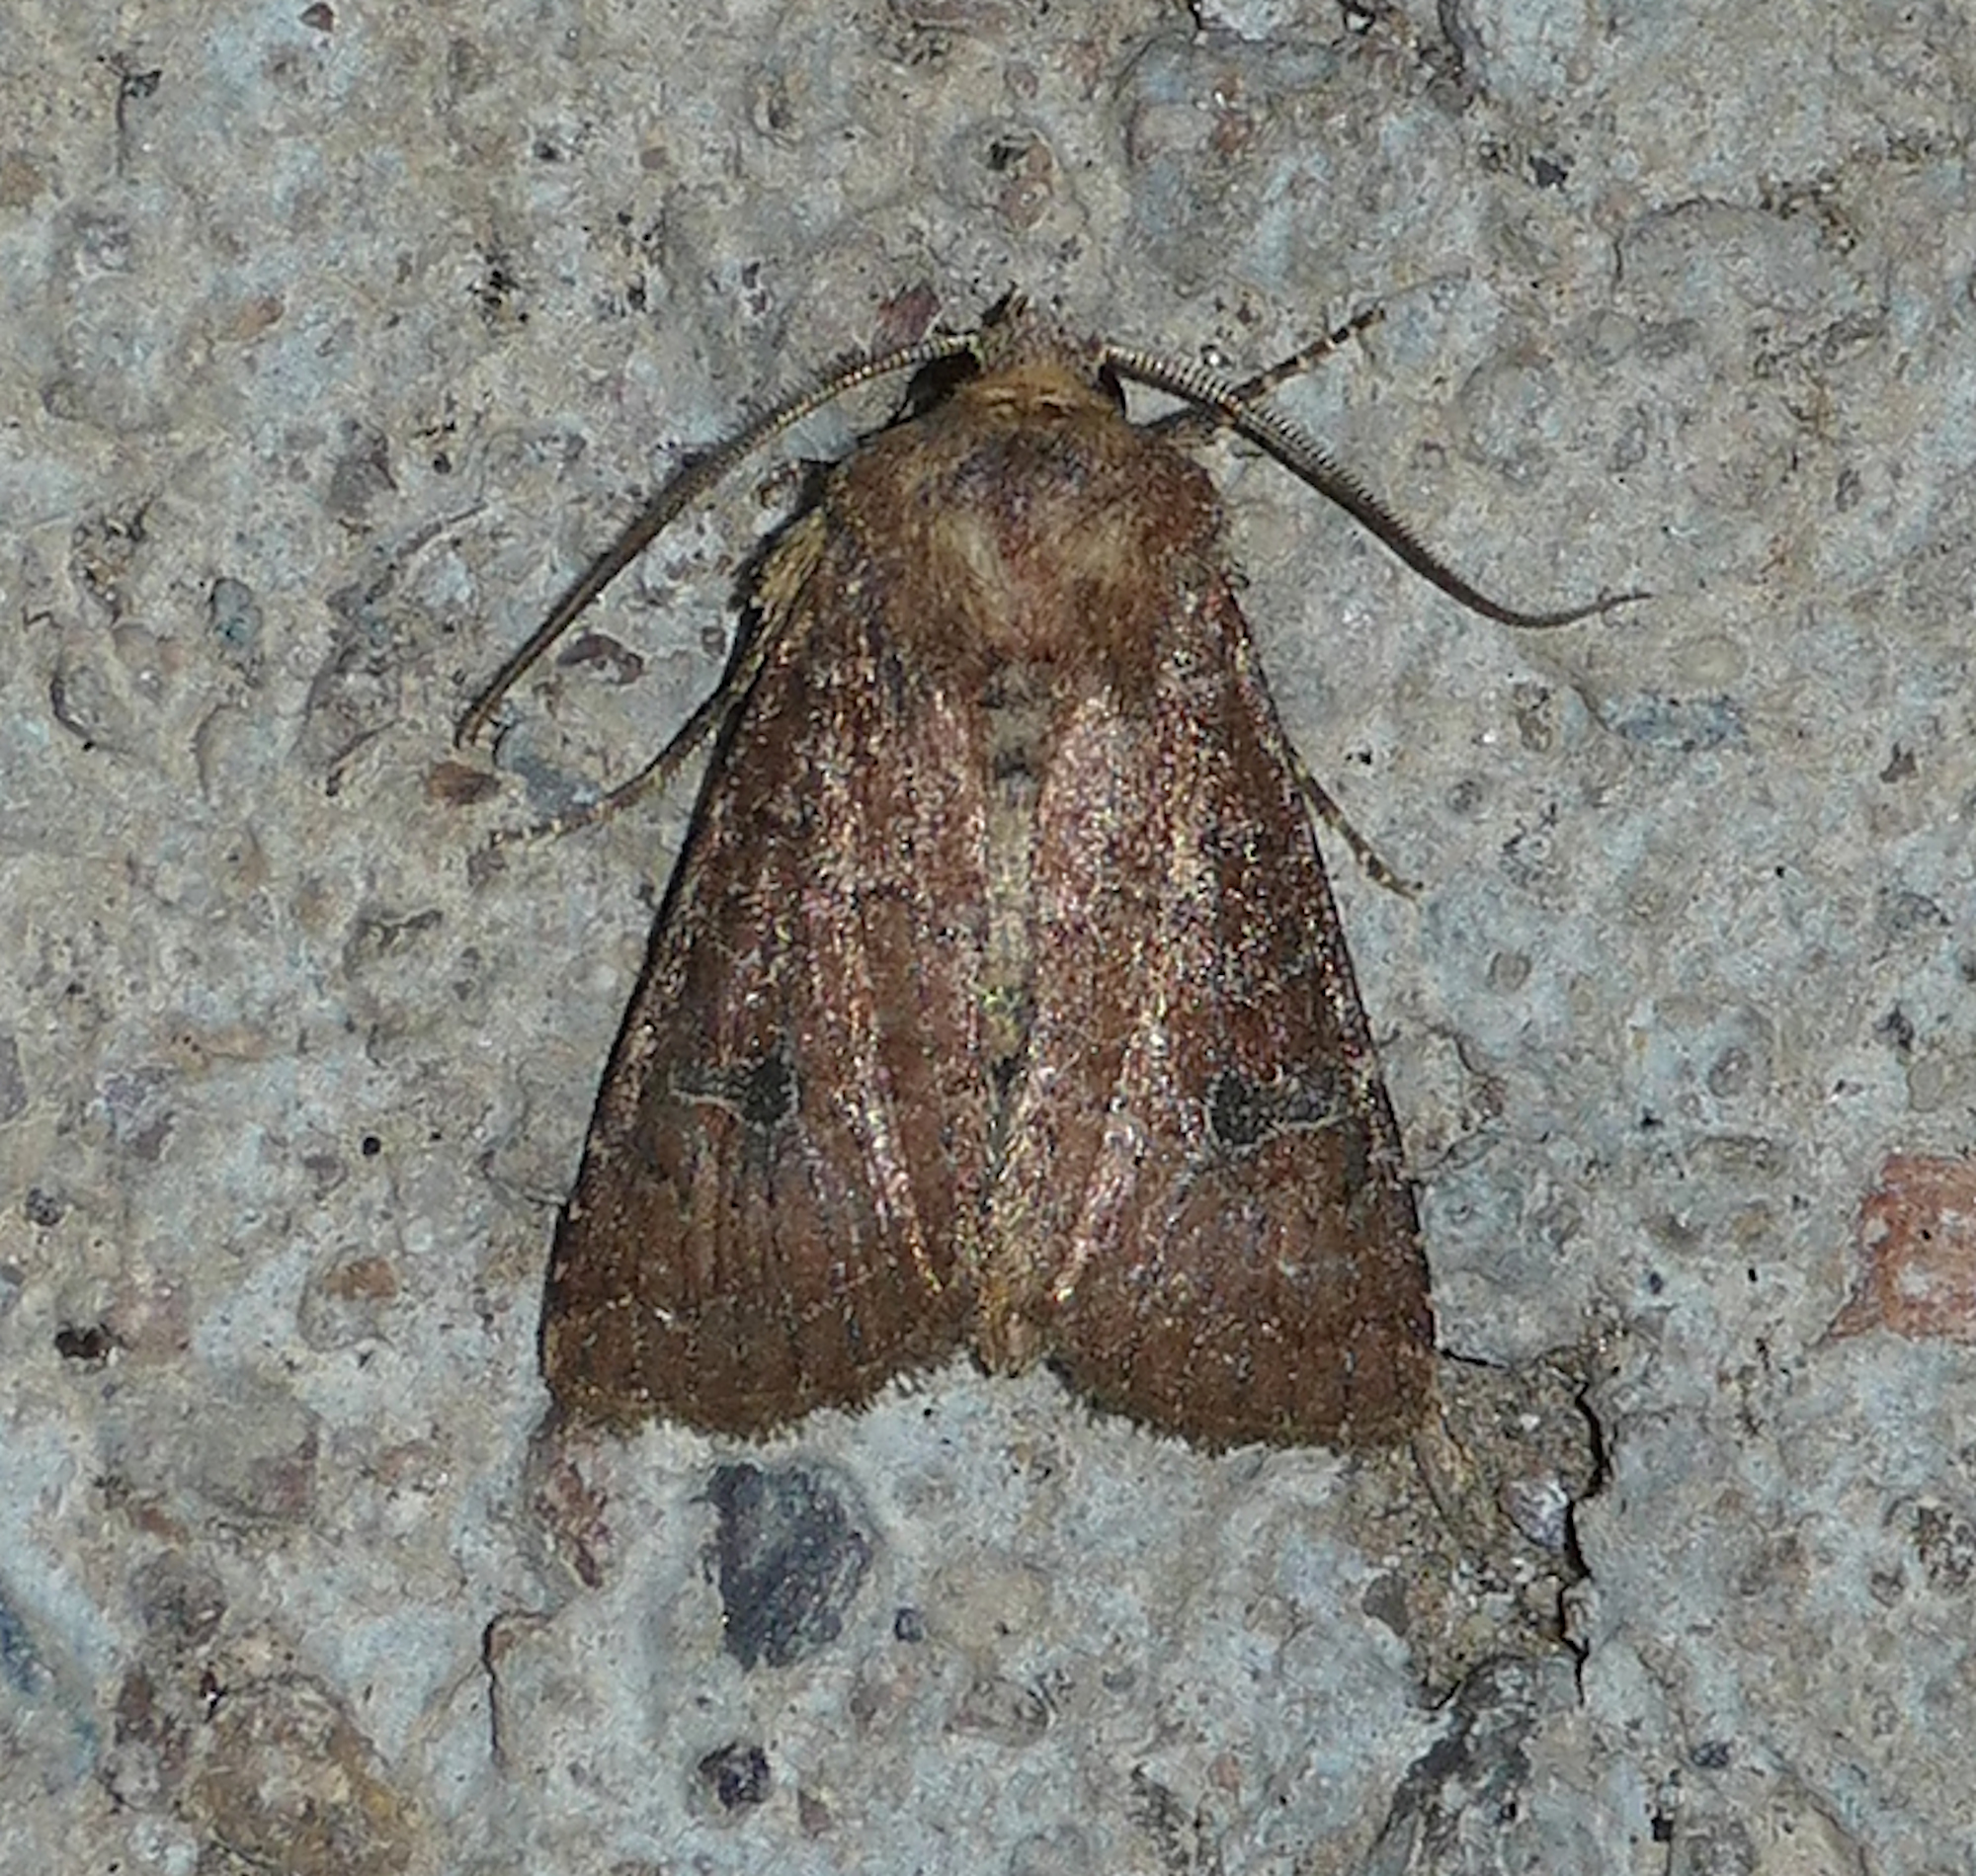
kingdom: Animalia
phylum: Arthropoda
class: Insecta
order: Lepidoptera
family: Noctuidae
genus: Trichopolia
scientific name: Trichopolia
